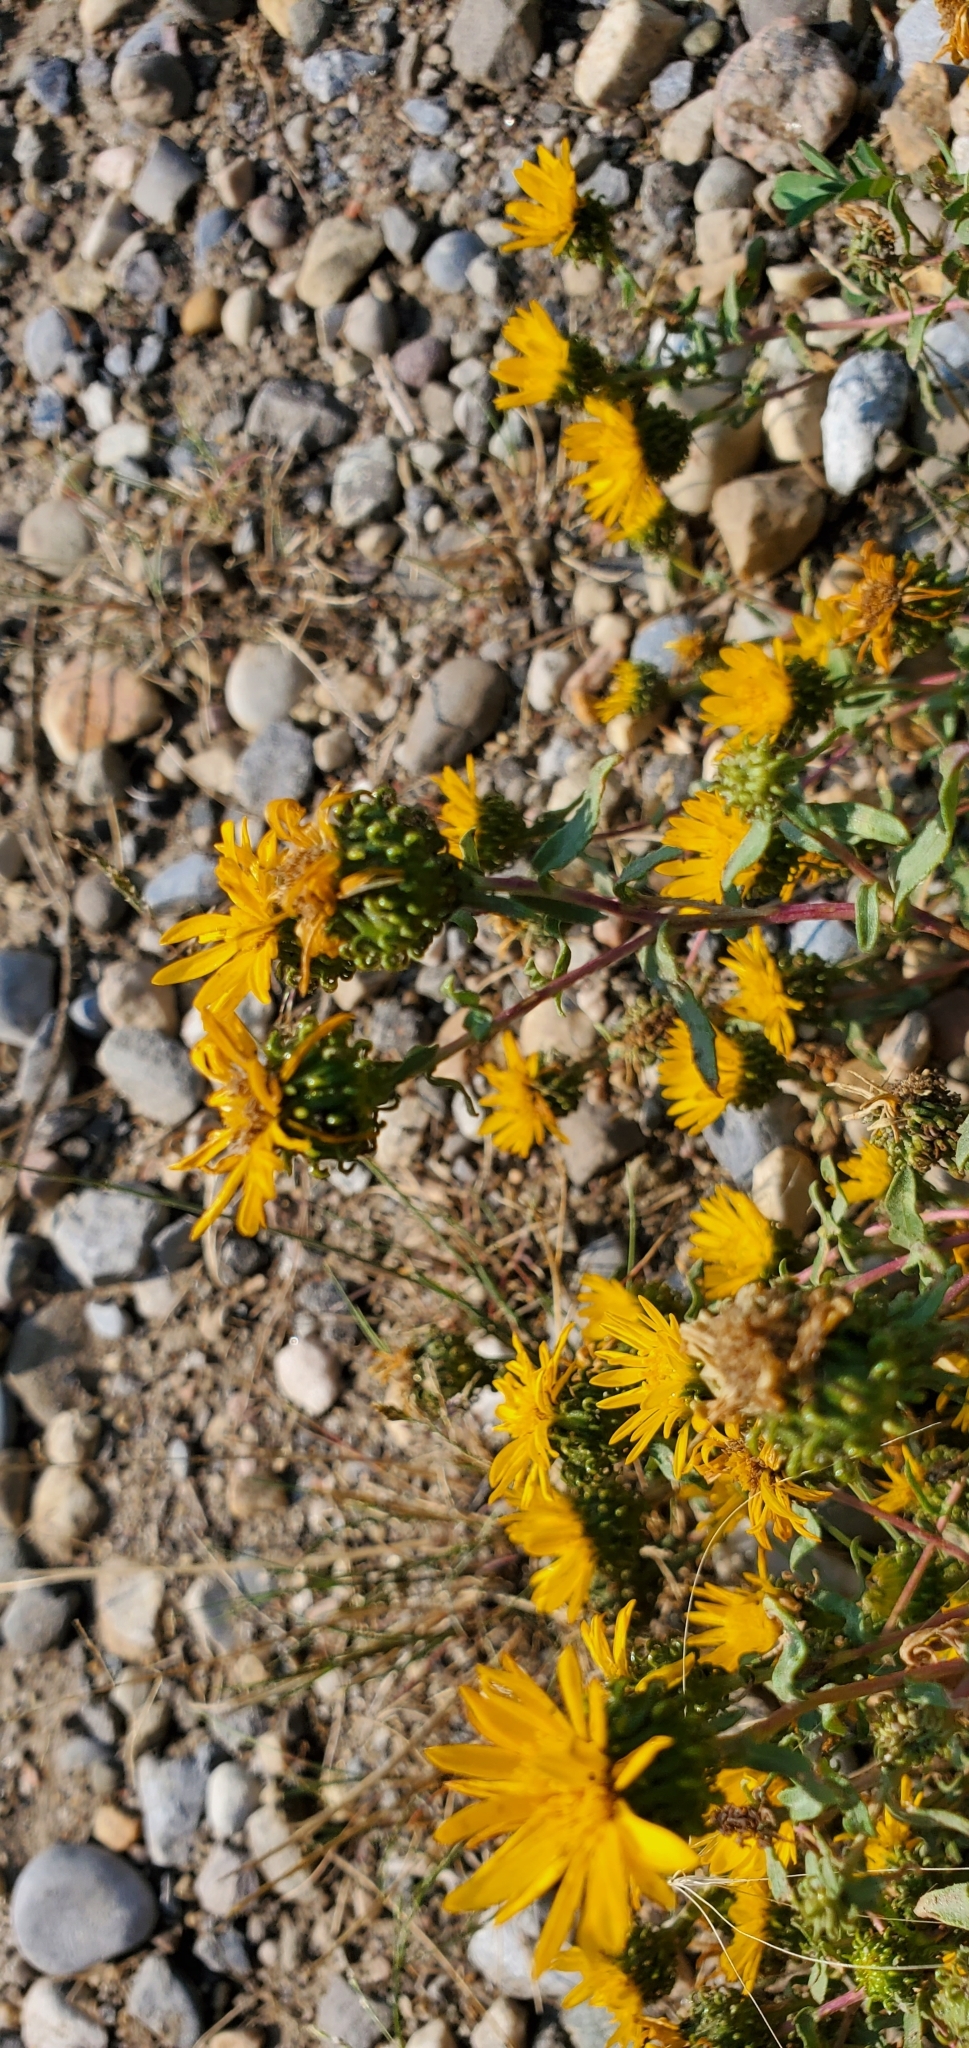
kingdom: Plantae
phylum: Tracheophyta
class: Magnoliopsida
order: Asterales
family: Asteraceae
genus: Grindelia
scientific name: Grindelia squarrosa
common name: Curly-cup gumweed
